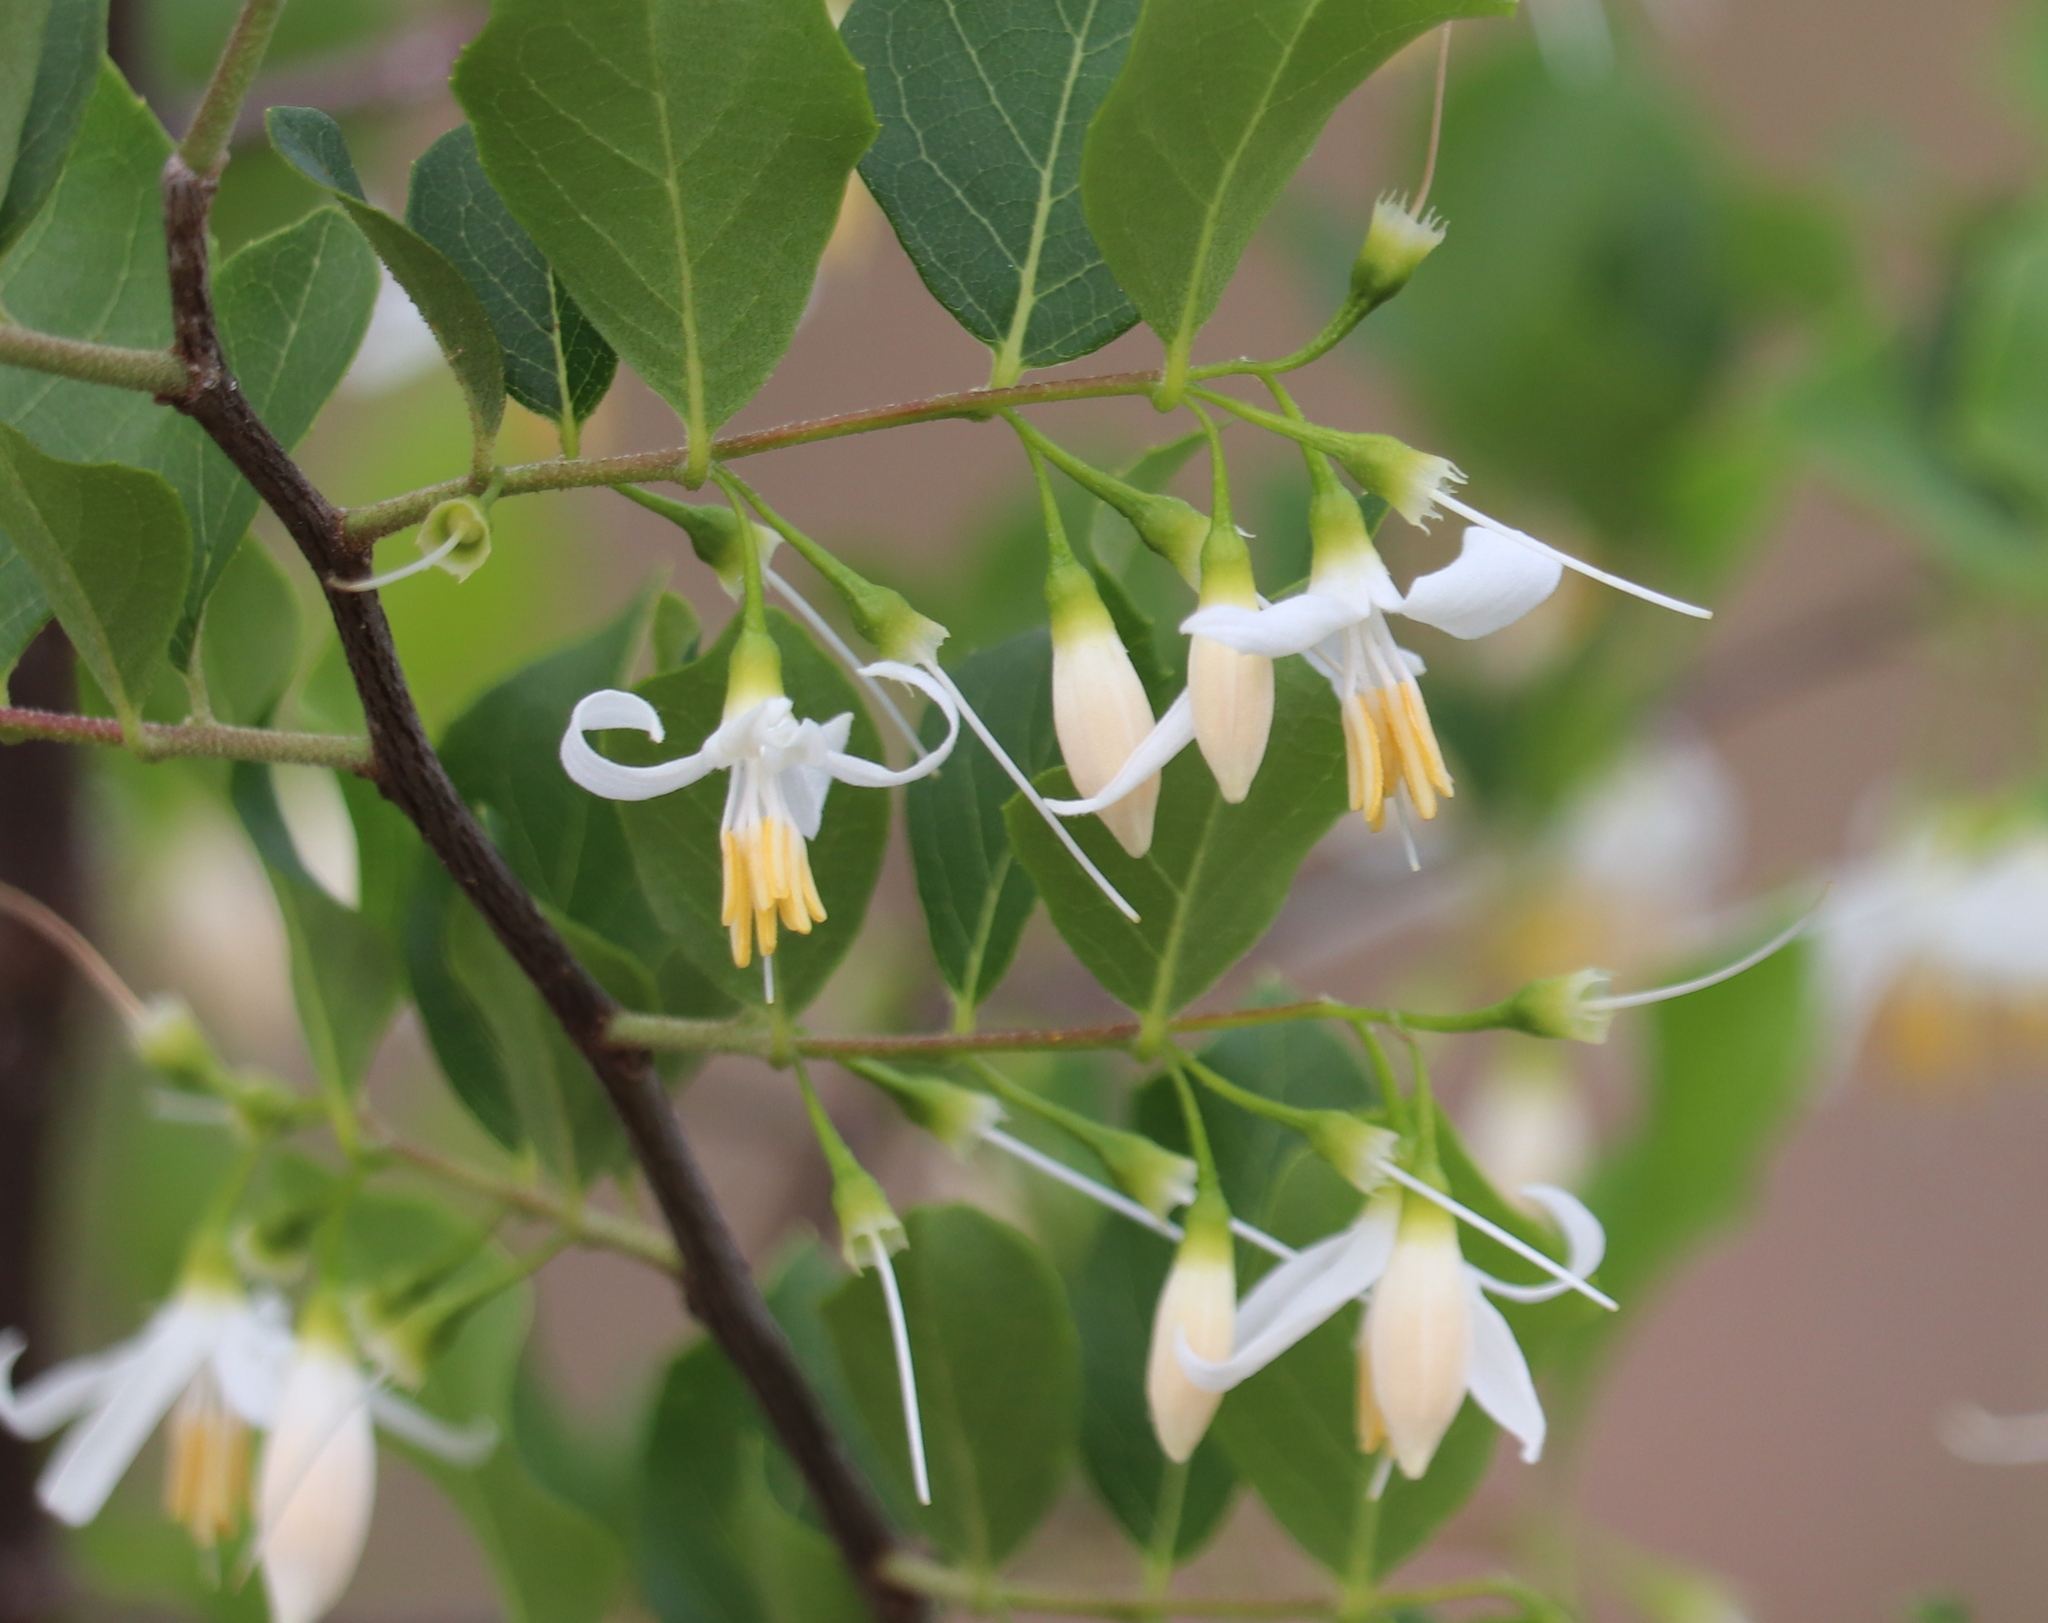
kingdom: Plantae
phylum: Tracheophyta
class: Magnoliopsida
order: Ericales
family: Styracaceae
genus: Styrax
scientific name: Styrax americanus
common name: American snowbell
